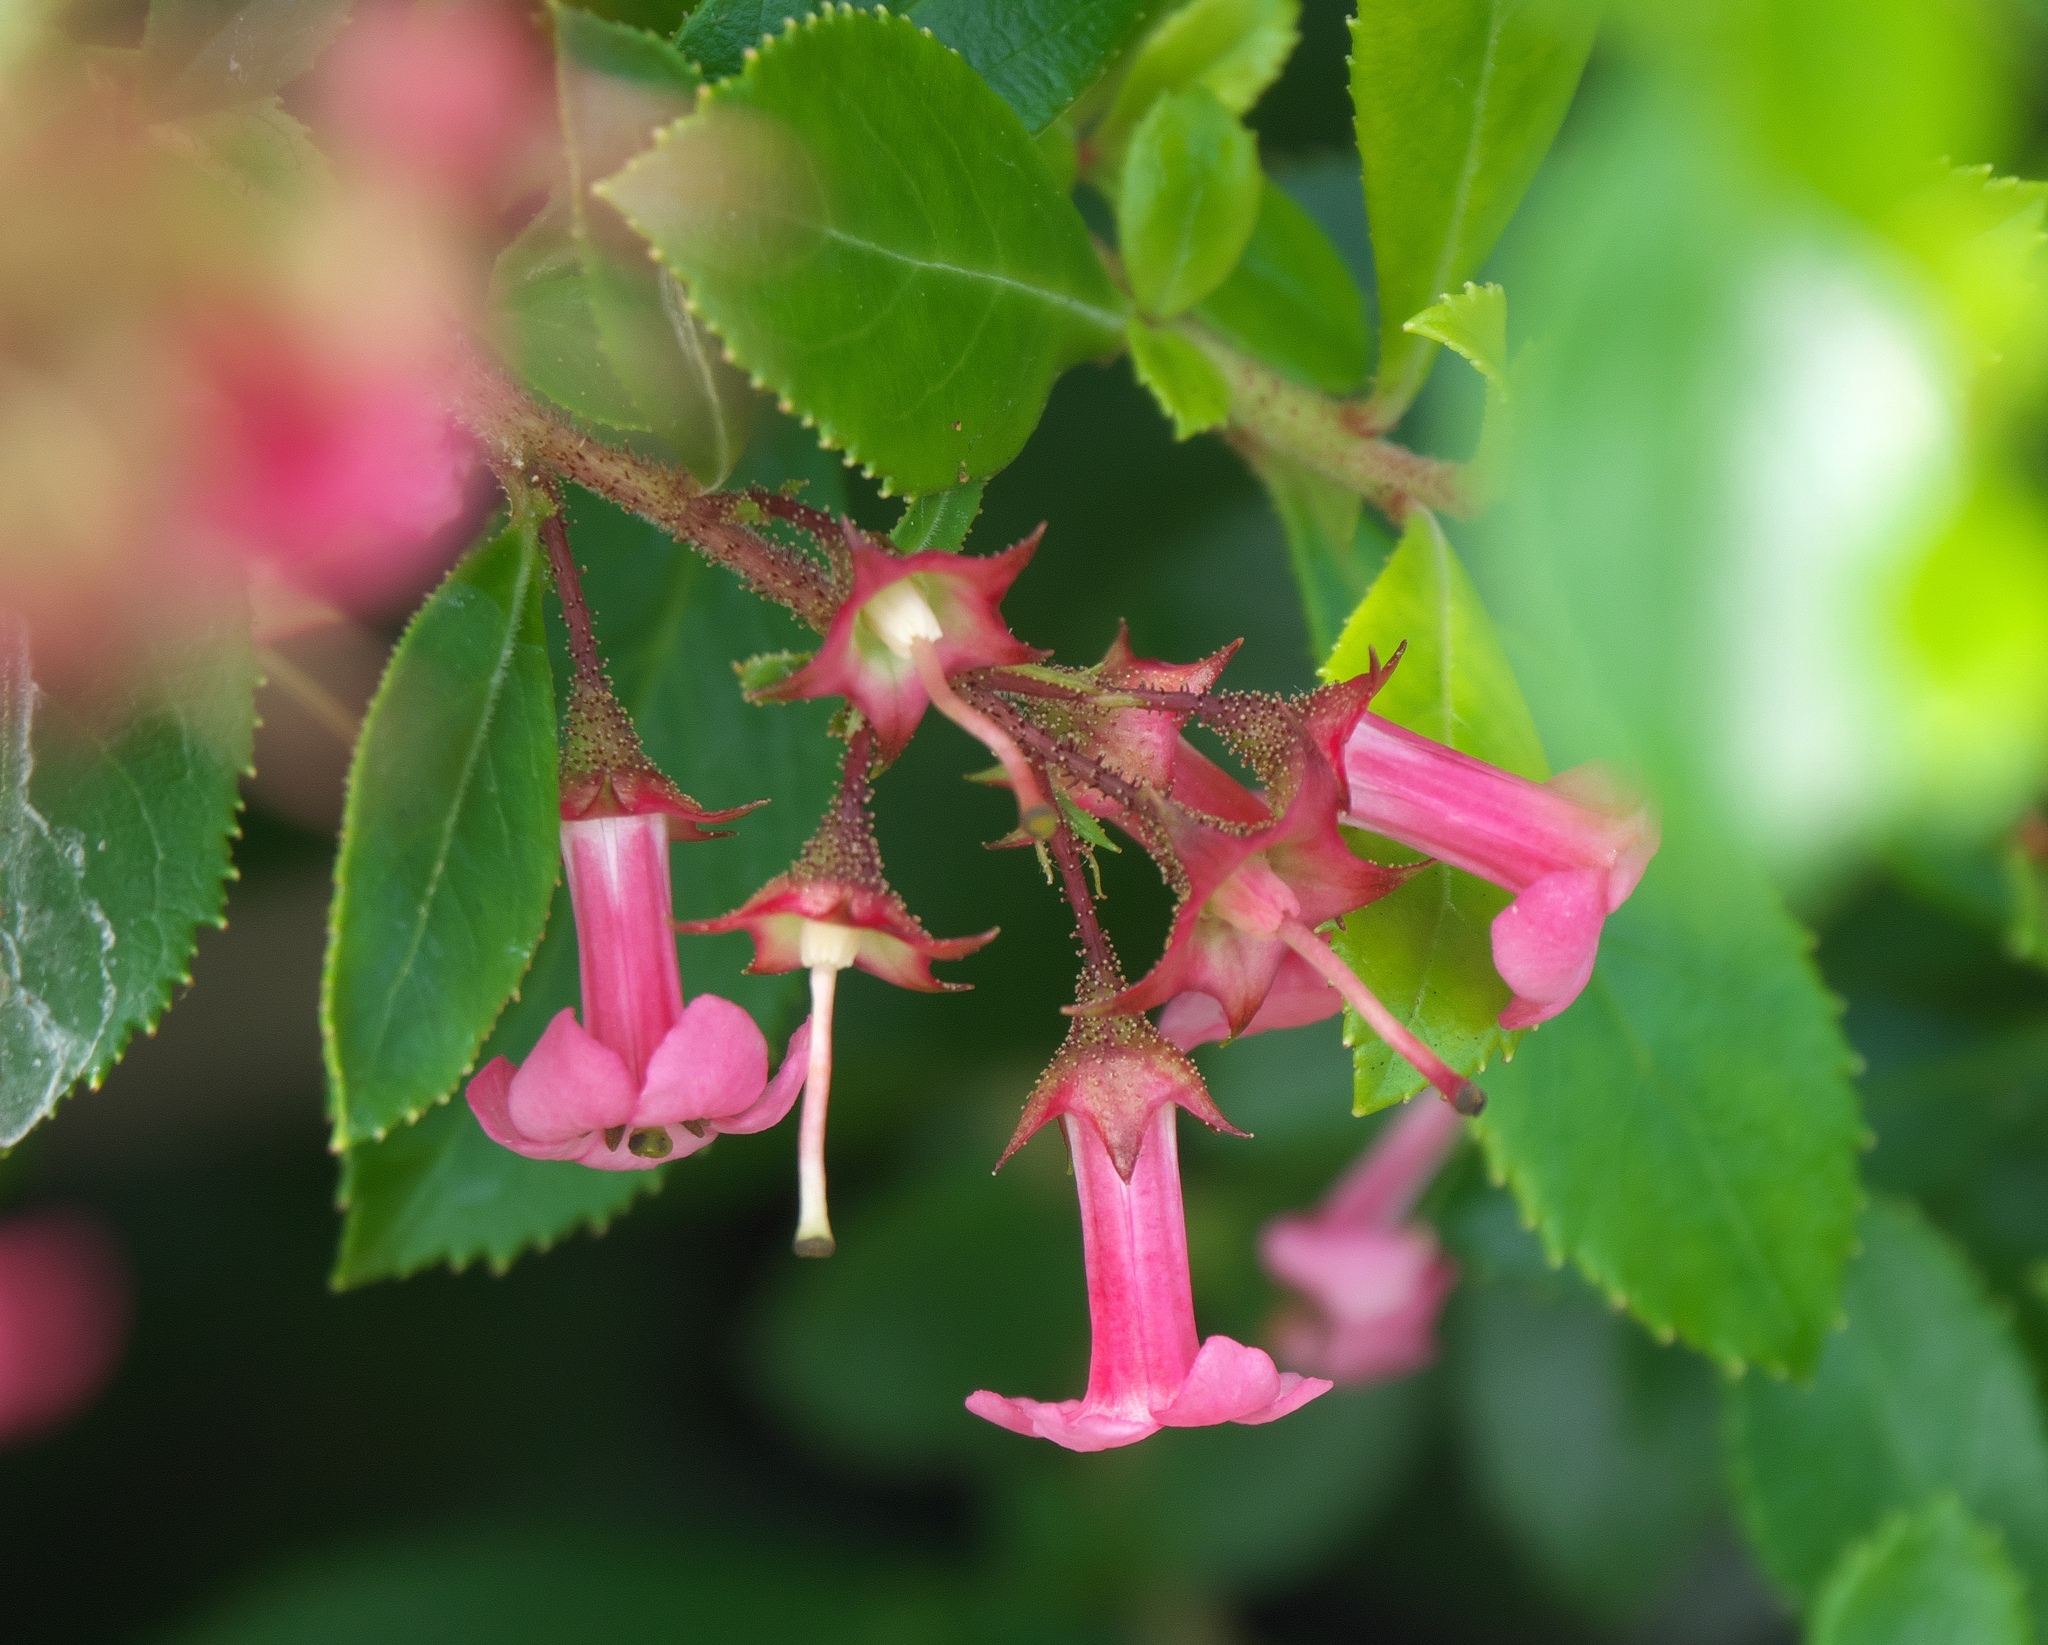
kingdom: Plantae
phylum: Tracheophyta
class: Magnoliopsida
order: Escalloniales
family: Escalloniaceae
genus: Escallonia
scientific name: Escallonia rubra
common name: Redclaws
